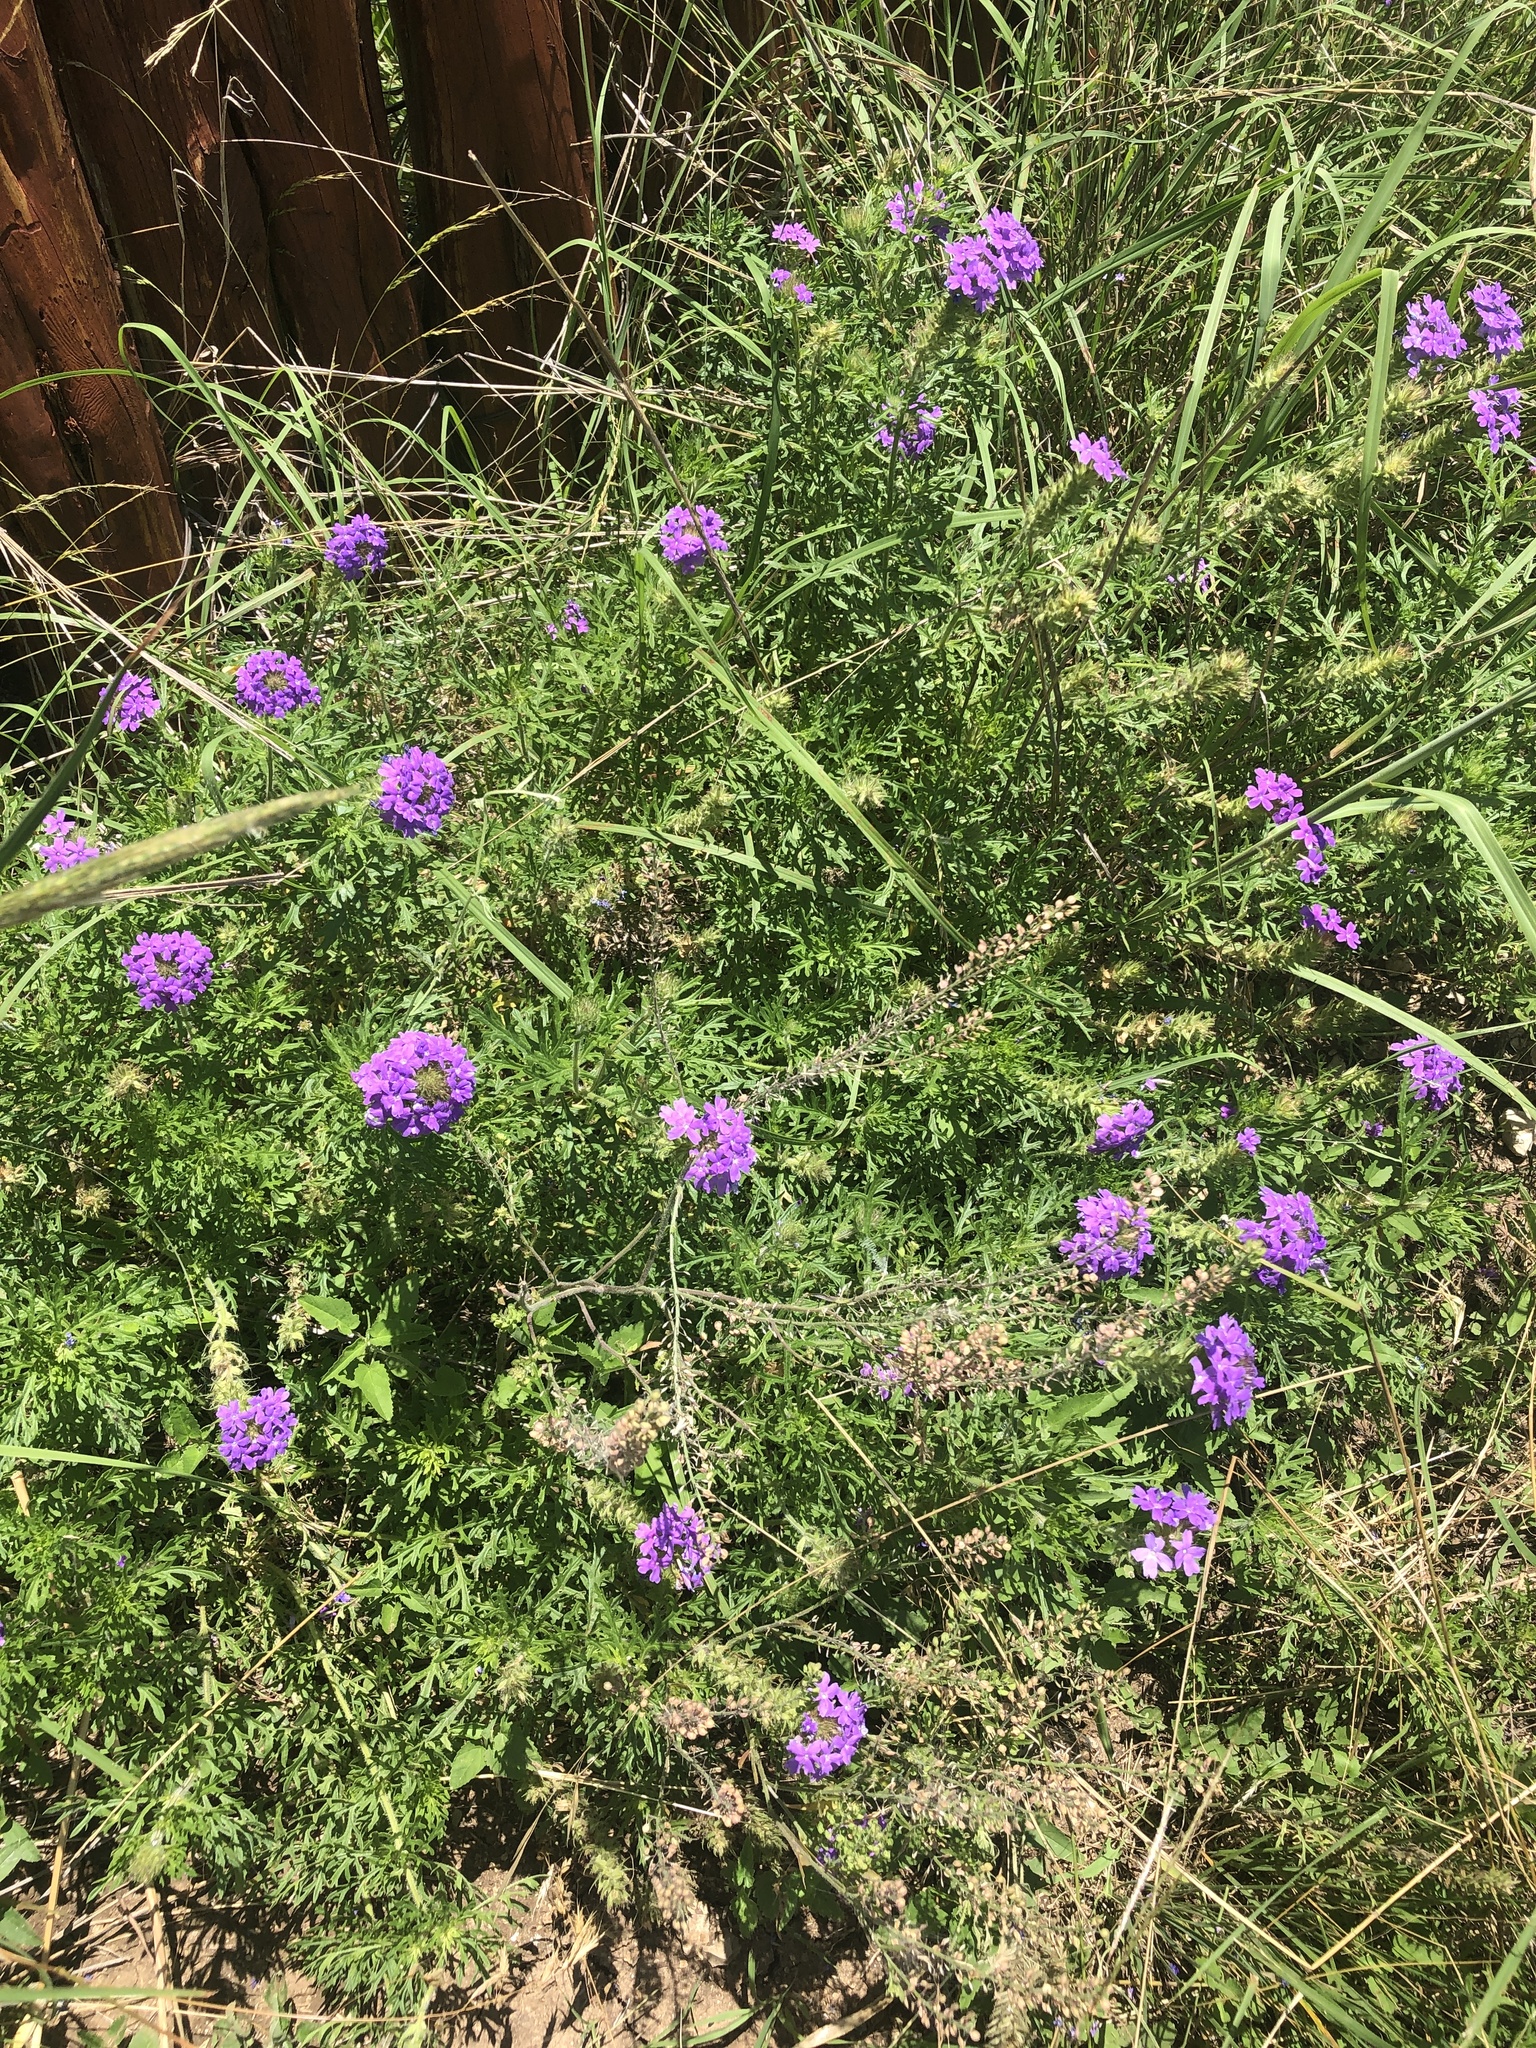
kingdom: Plantae
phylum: Tracheophyta
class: Magnoliopsida
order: Lamiales
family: Verbenaceae
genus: Verbena
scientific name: Verbena bipinnatifida
